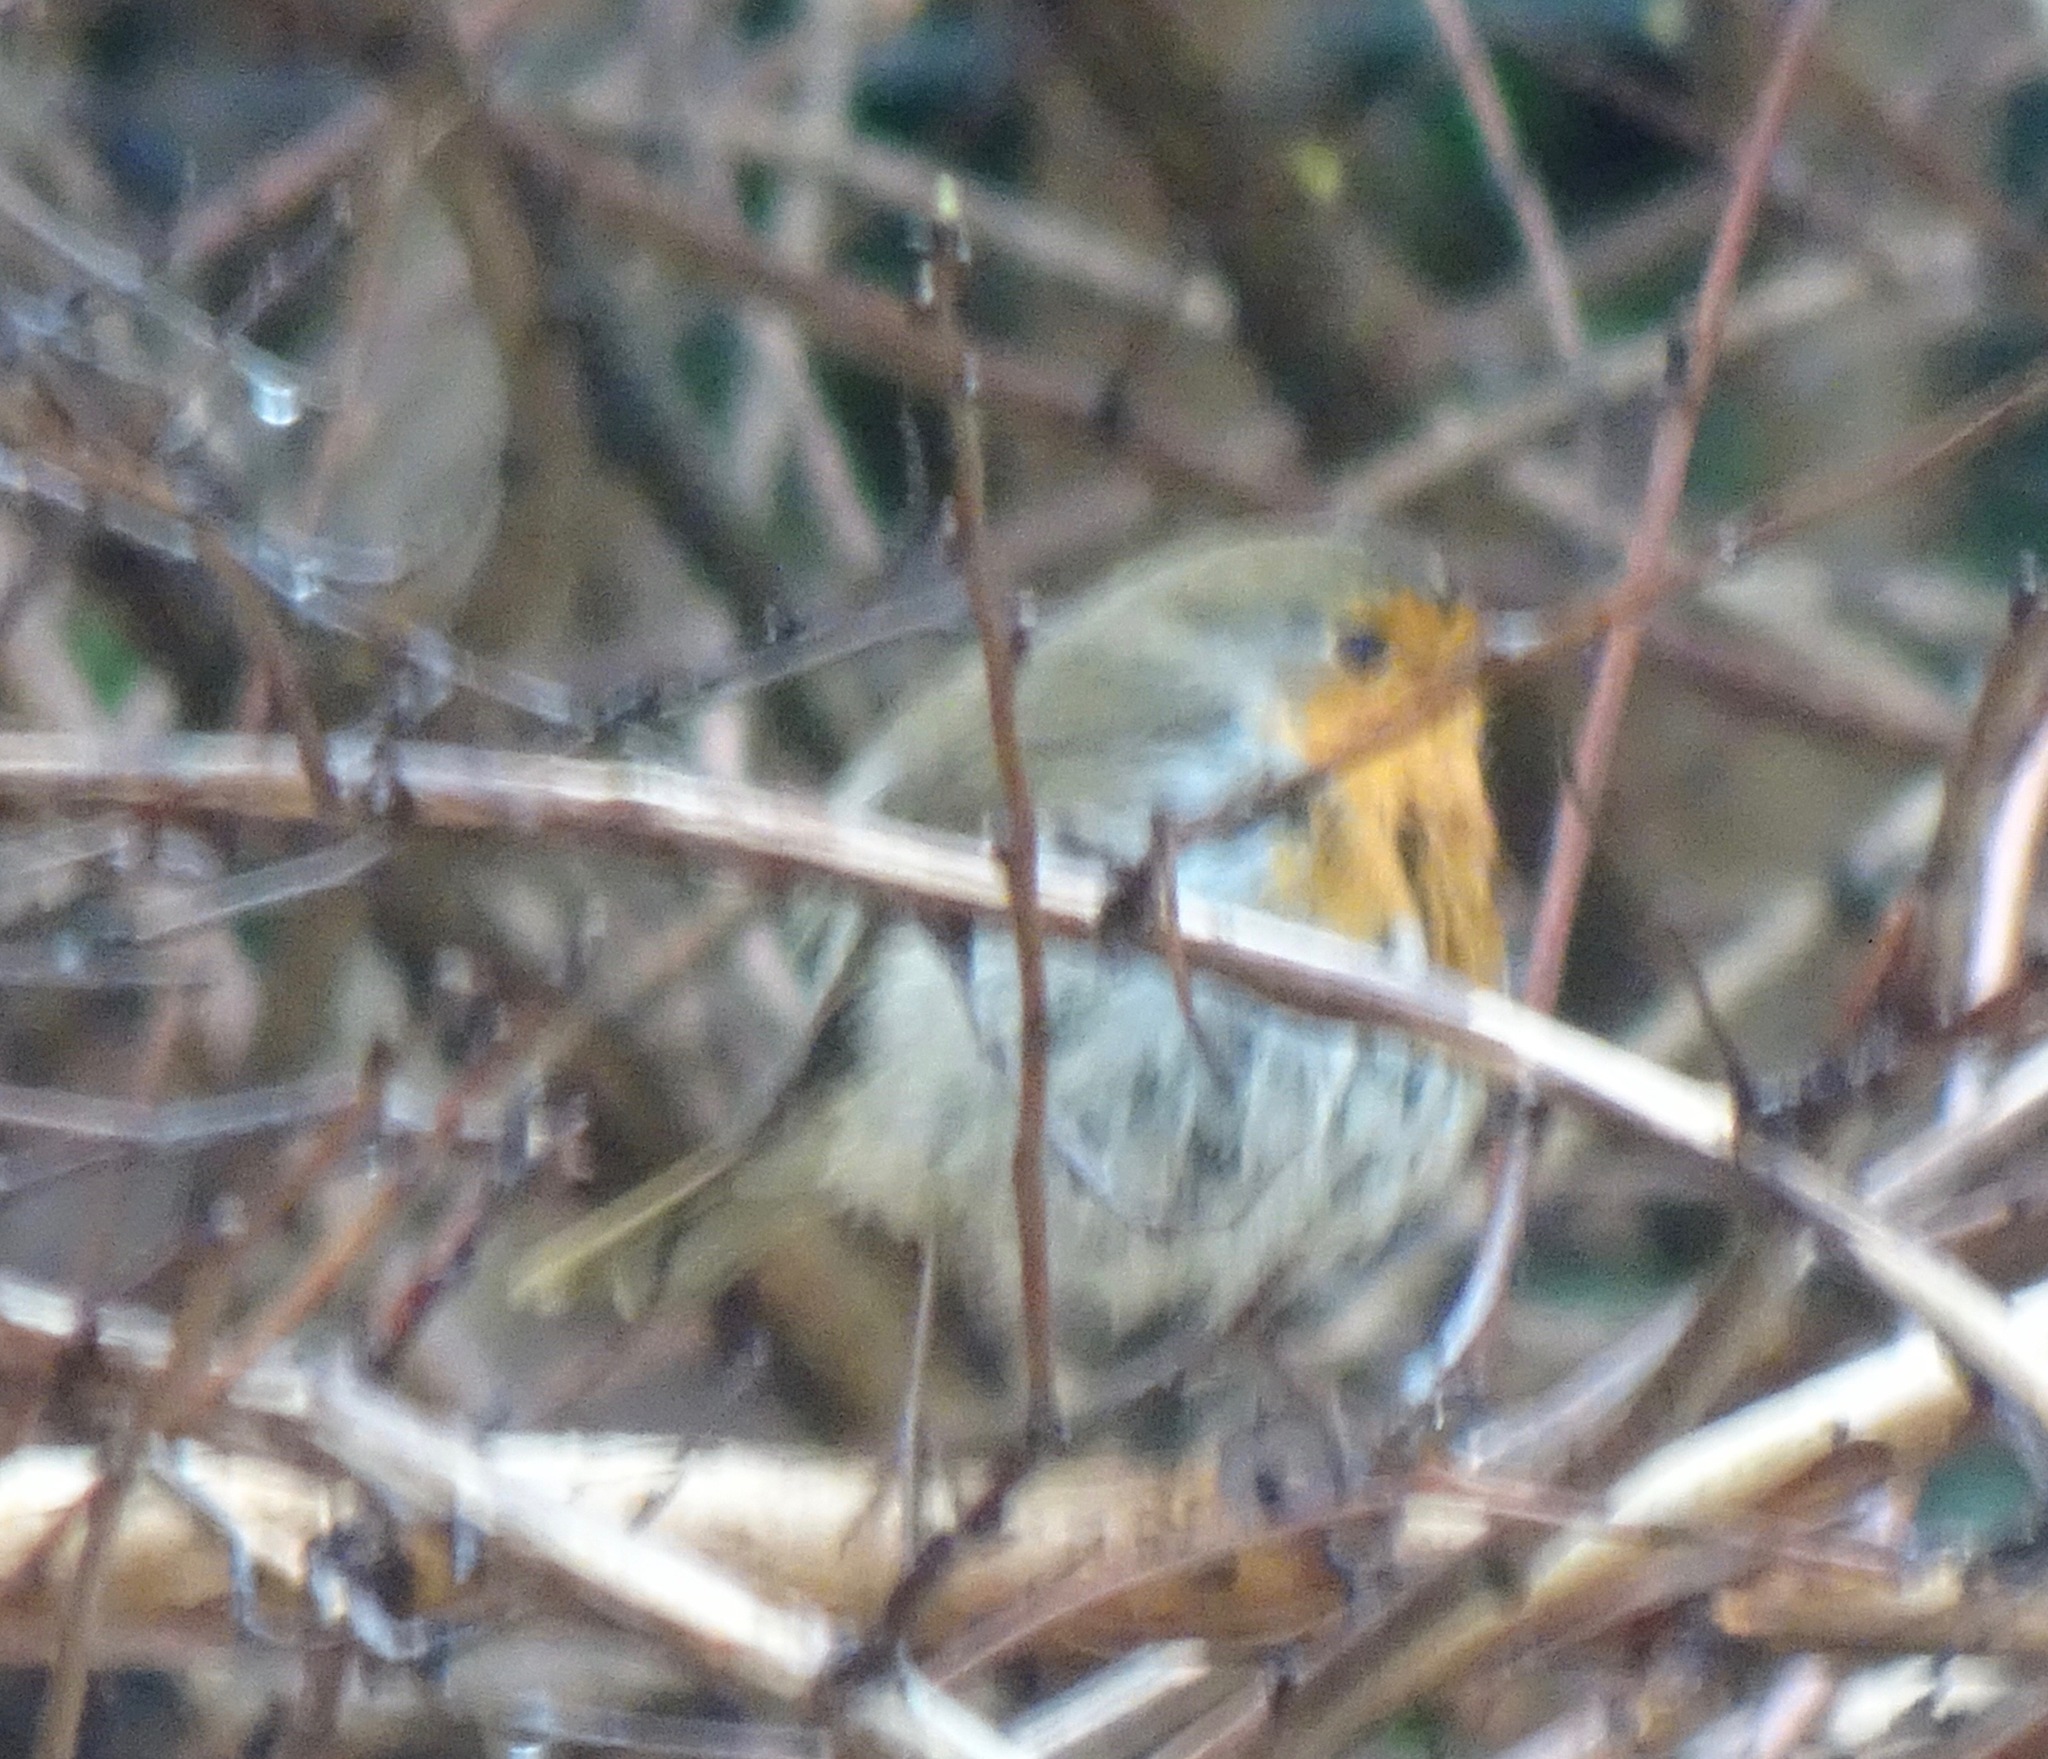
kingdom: Animalia
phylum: Chordata
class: Aves
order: Passeriformes
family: Muscicapidae
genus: Erithacus
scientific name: Erithacus rubecula
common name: European robin
